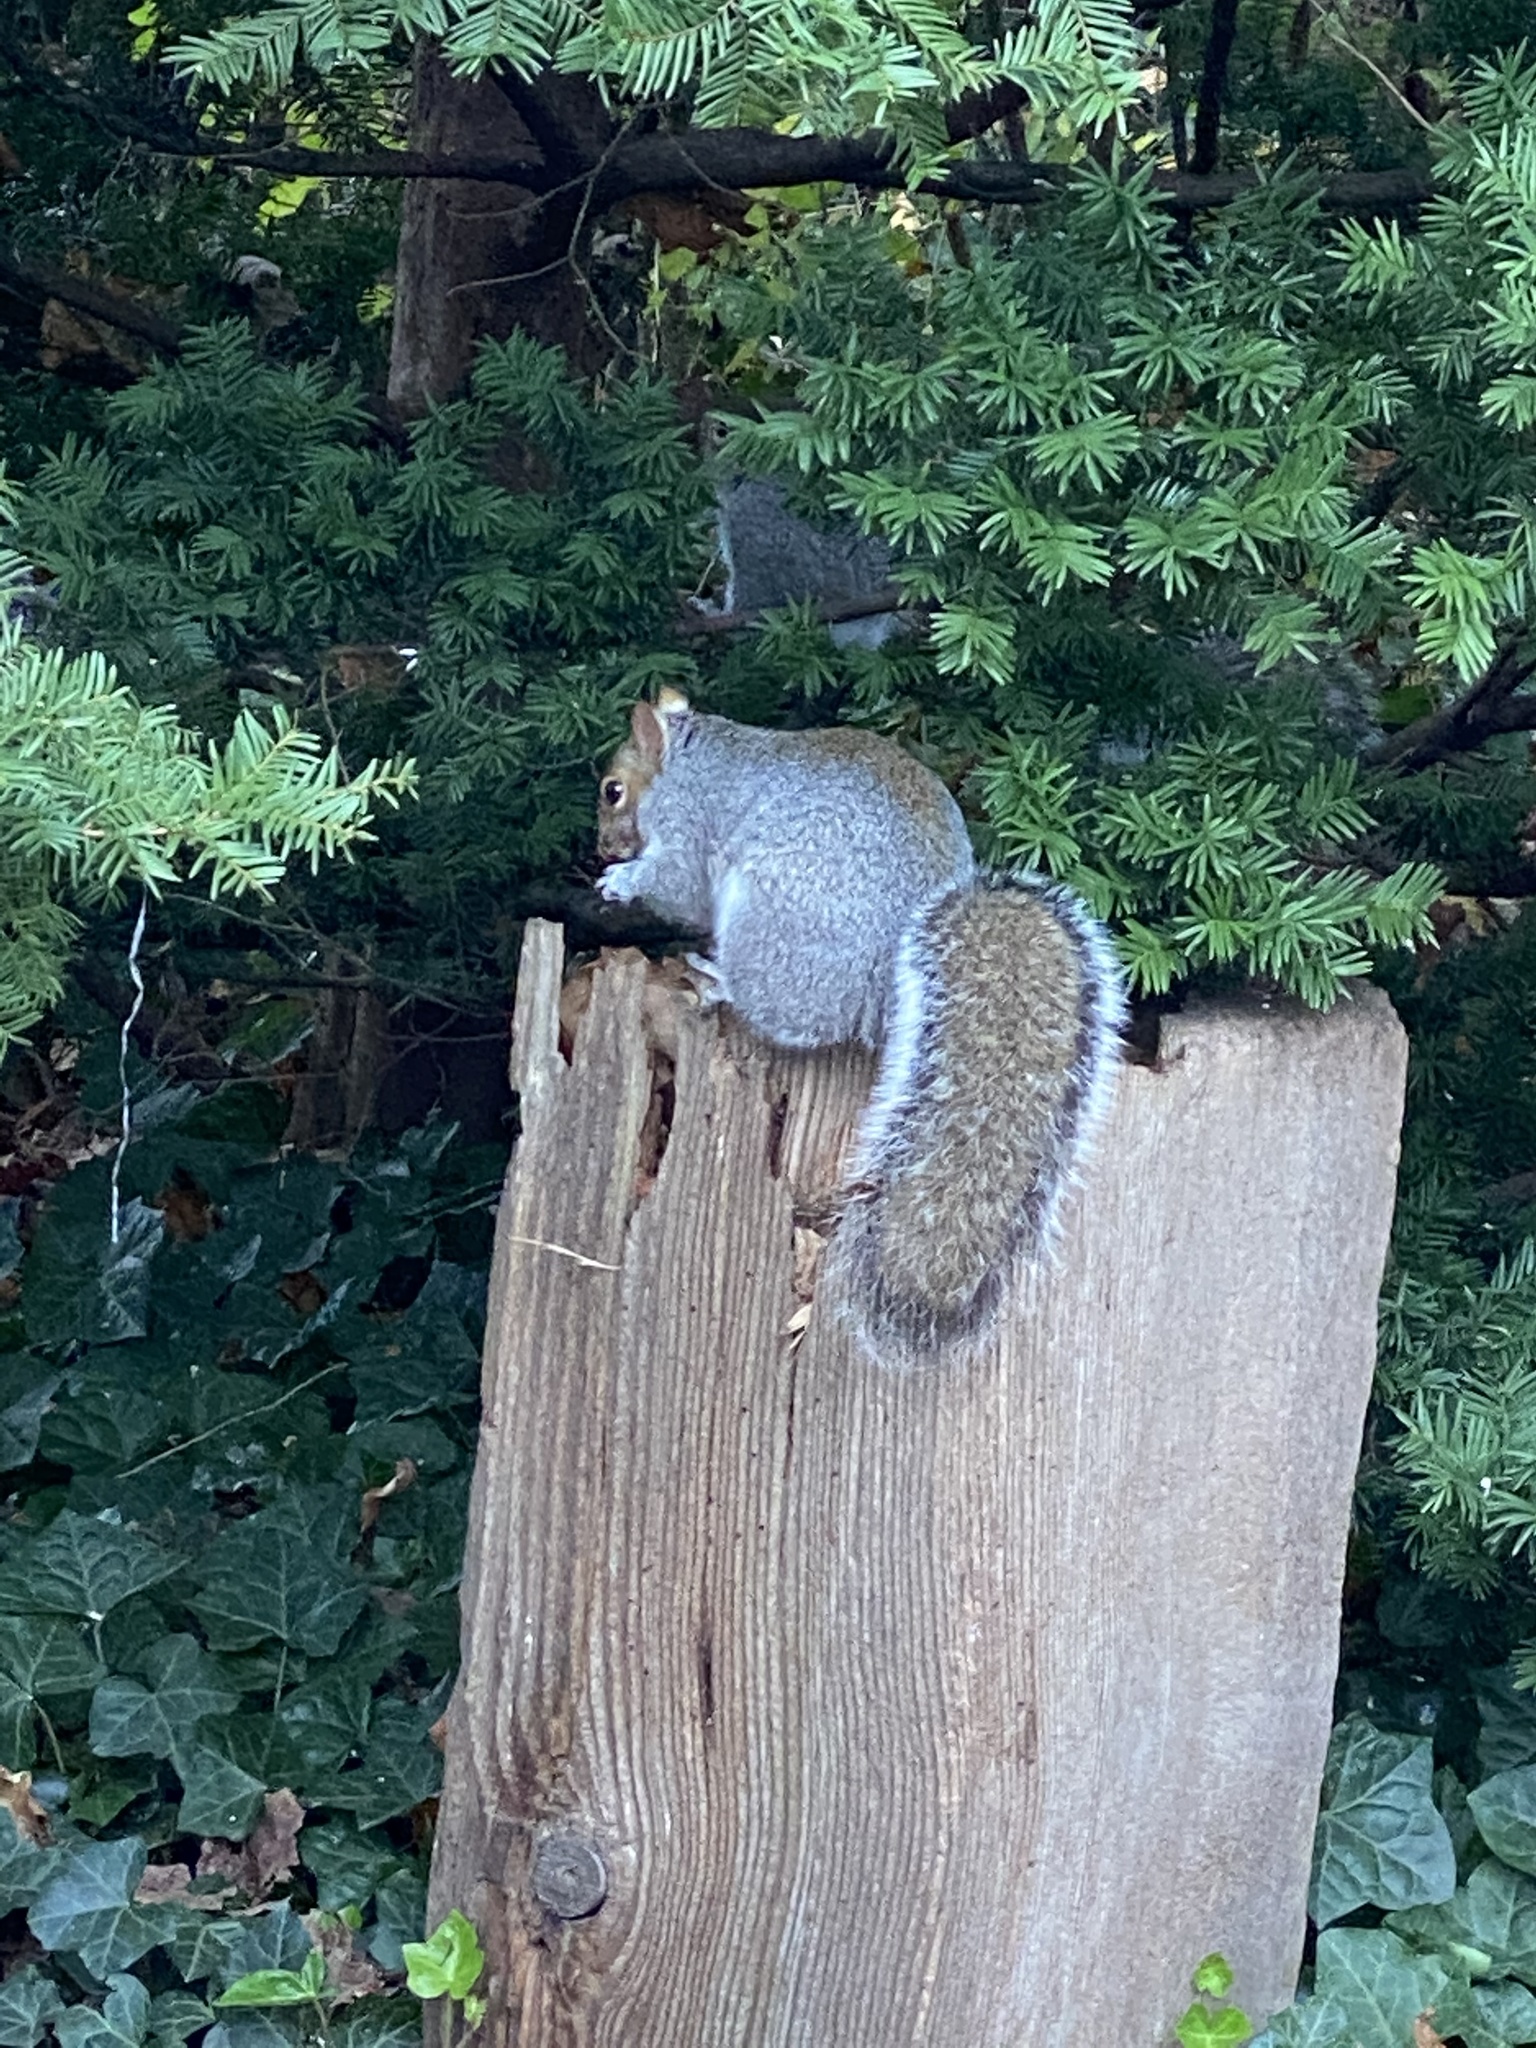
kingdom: Animalia
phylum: Chordata
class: Mammalia
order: Rodentia
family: Sciuridae
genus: Sciurus
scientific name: Sciurus carolinensis
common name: Eastern gray squirrel
